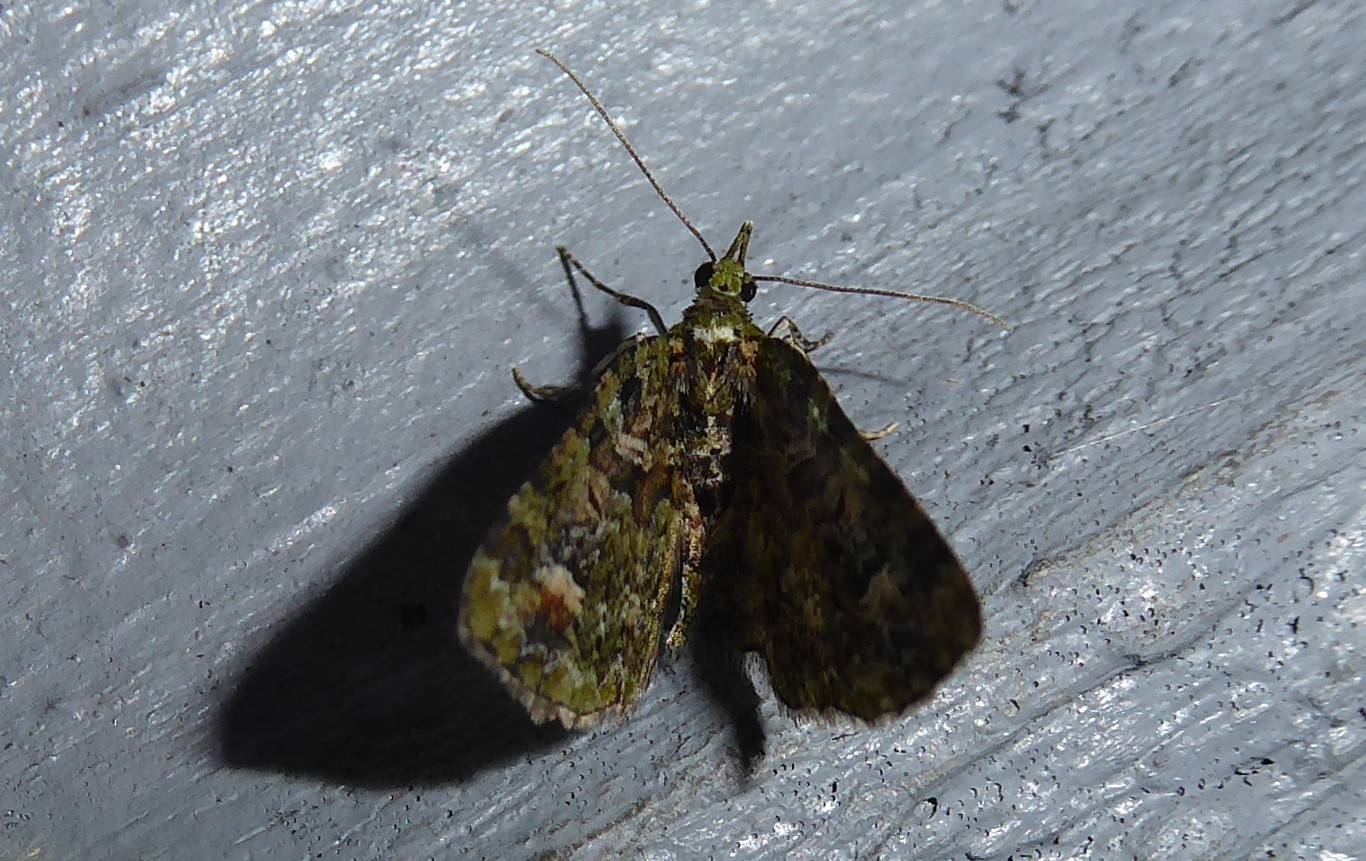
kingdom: Animalia
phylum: Arthropoda
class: Insecta
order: Lepidoptera
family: Geometridae
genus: Idaea
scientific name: Idaea mutanda
